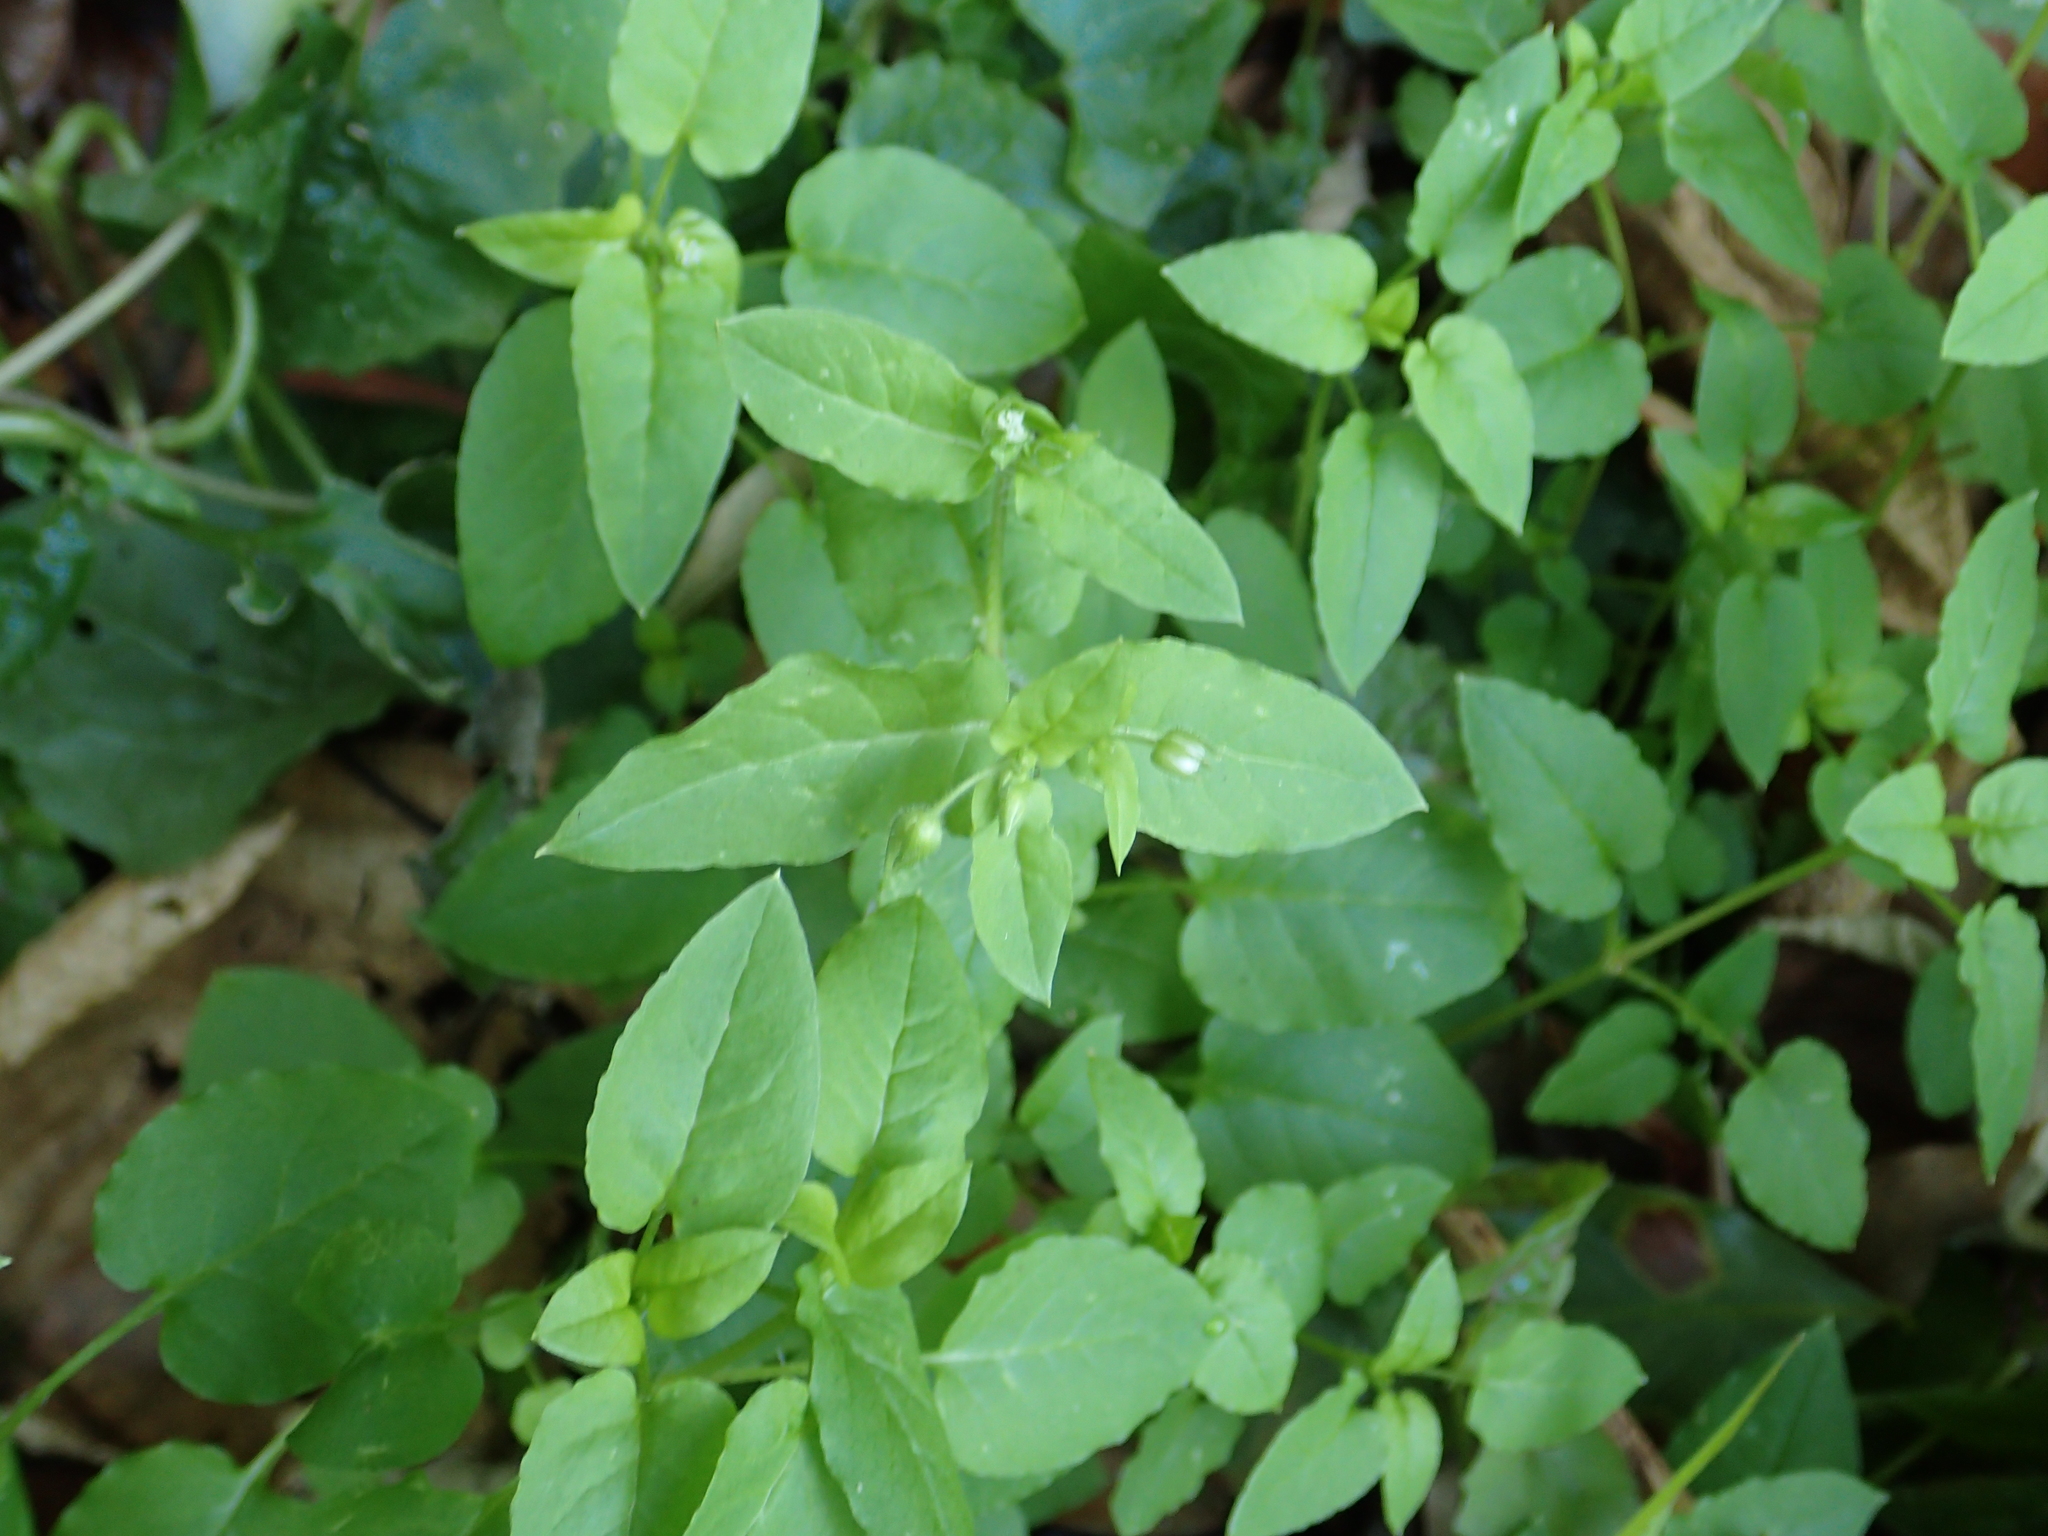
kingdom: Plantae
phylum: Tracheophyta
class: Magnoliopsida
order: Caryophyllales
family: Caryophyllaceae
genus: Stellaria
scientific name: Stellaria aquatica
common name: Water chickweed
